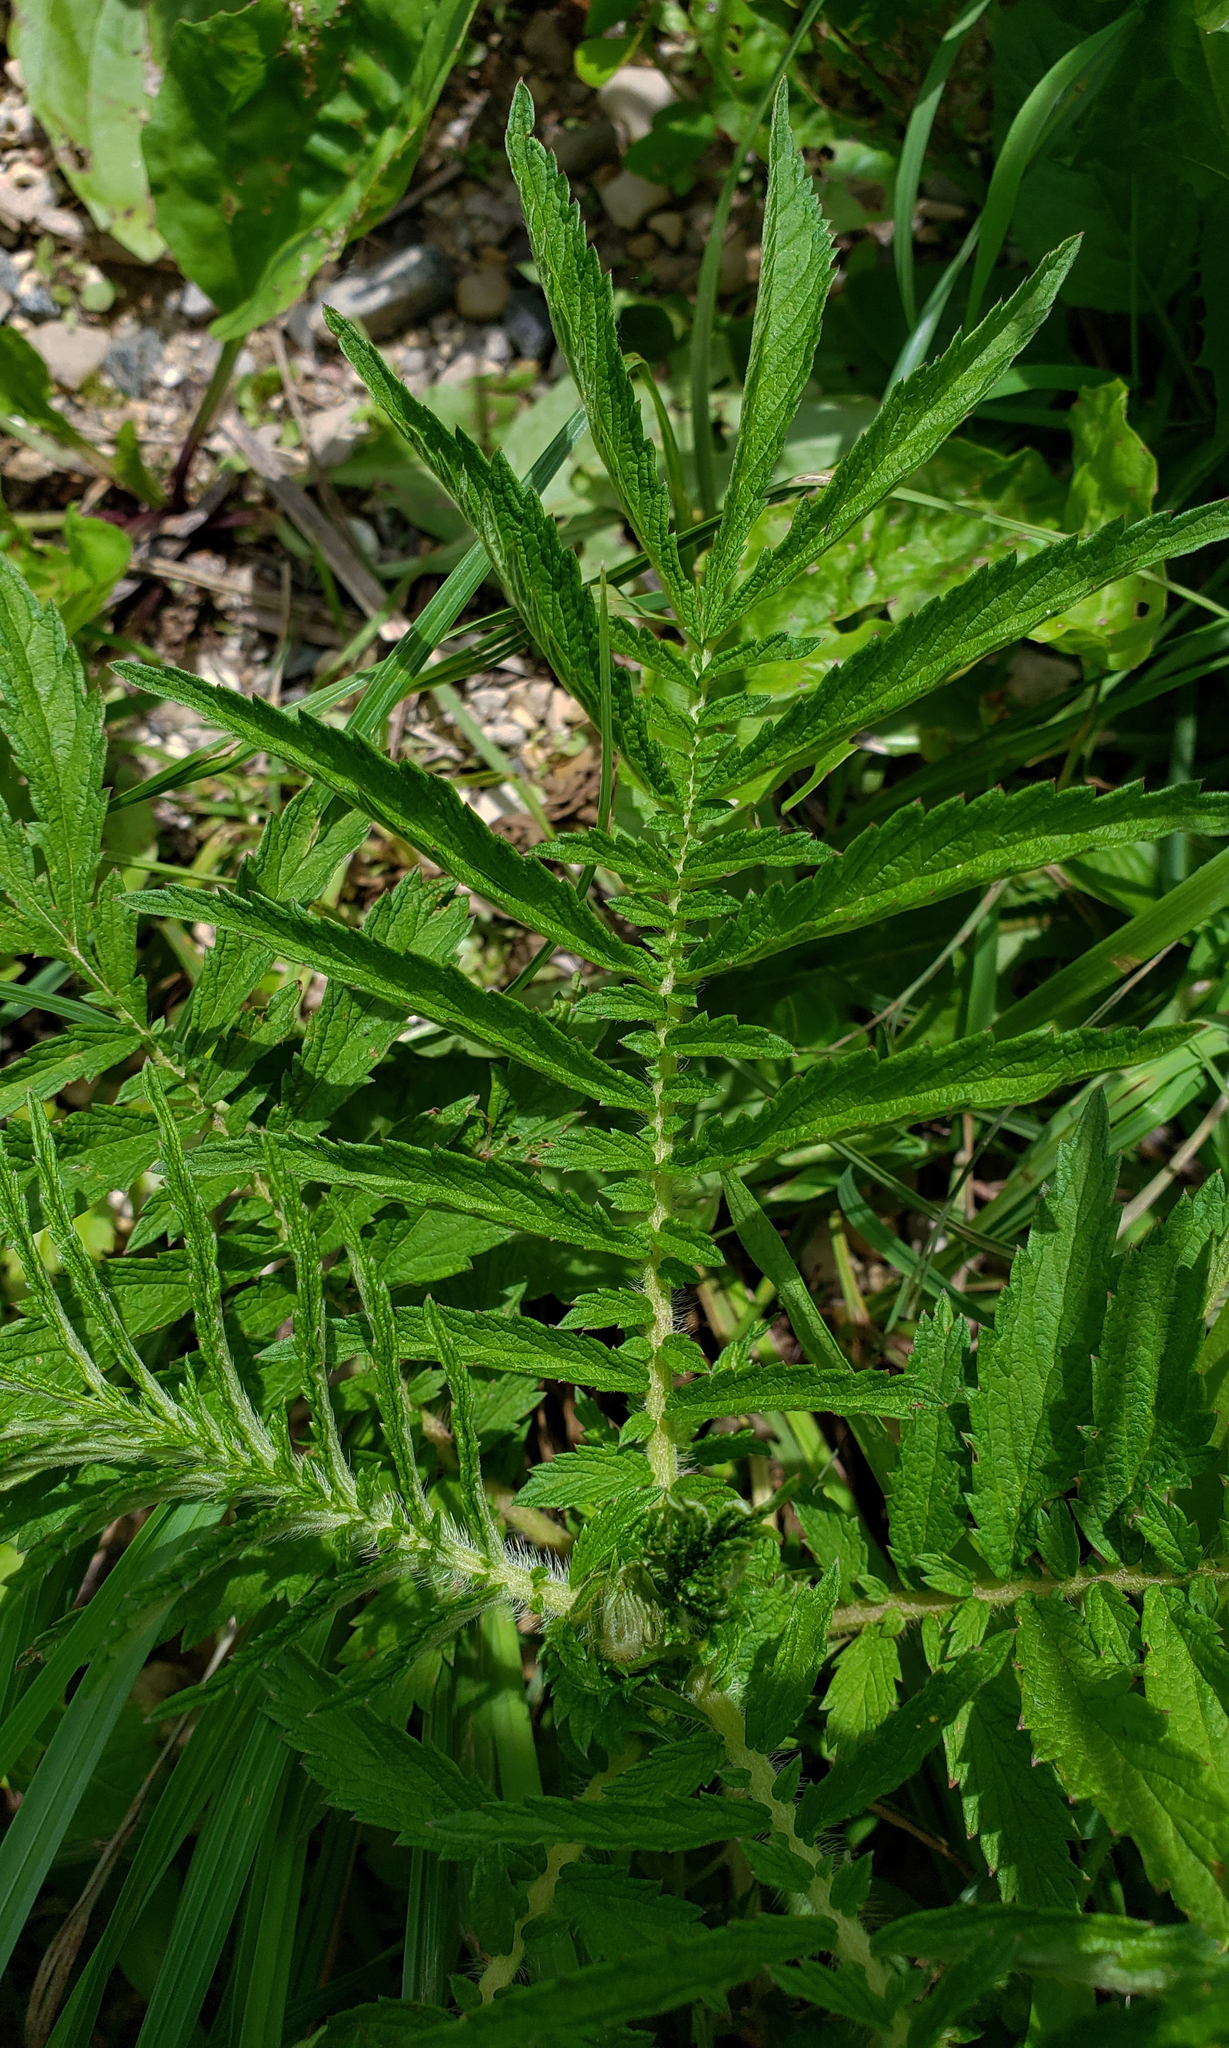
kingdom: Plantae
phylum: Tracheophyta
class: Magnoliopsida
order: Rosales
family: Rosaceae
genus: Agrimonia
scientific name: Agrimonia parviflora
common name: Harvest-lice
